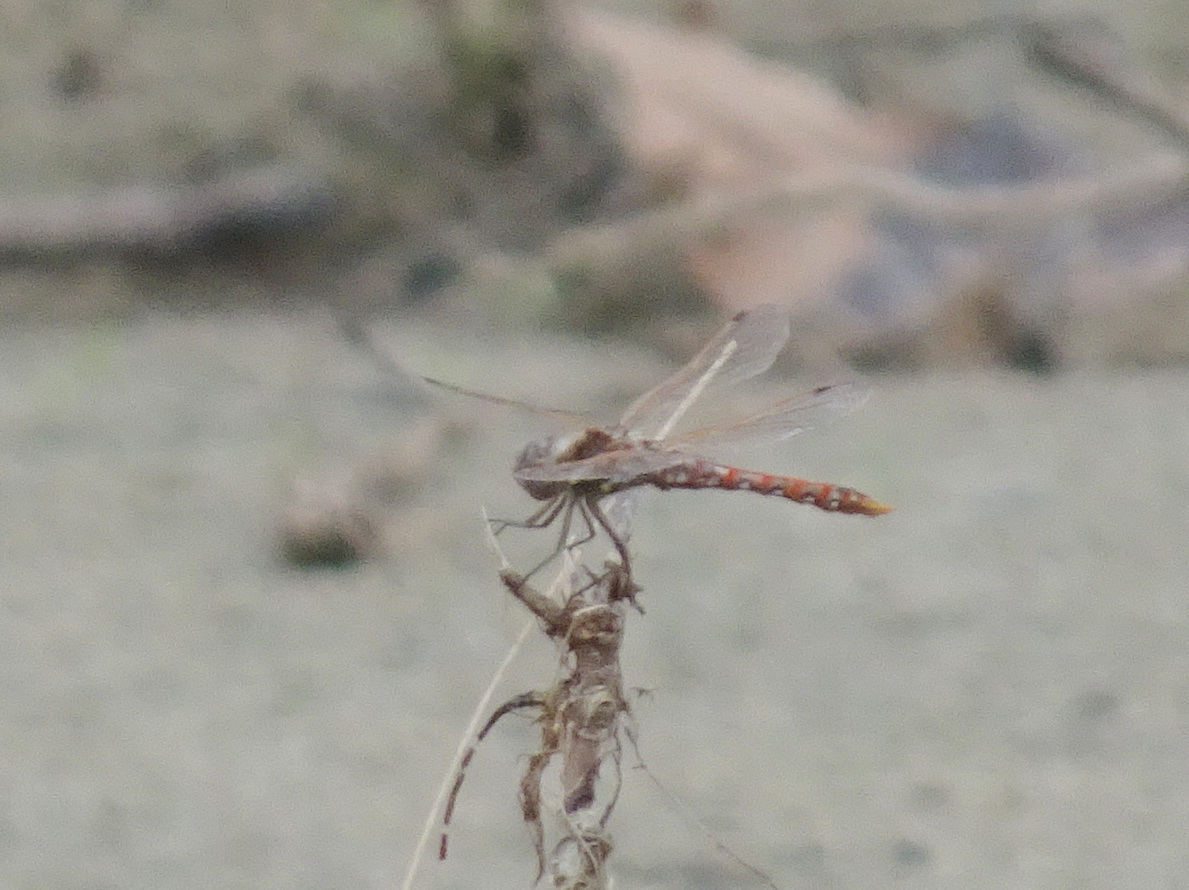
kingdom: Animalia
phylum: Arthropoda
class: Insecta
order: Odonata
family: Libellulidae
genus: Sympetrum
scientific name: Sympetrum corruptum
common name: Variegated meadowhawk
